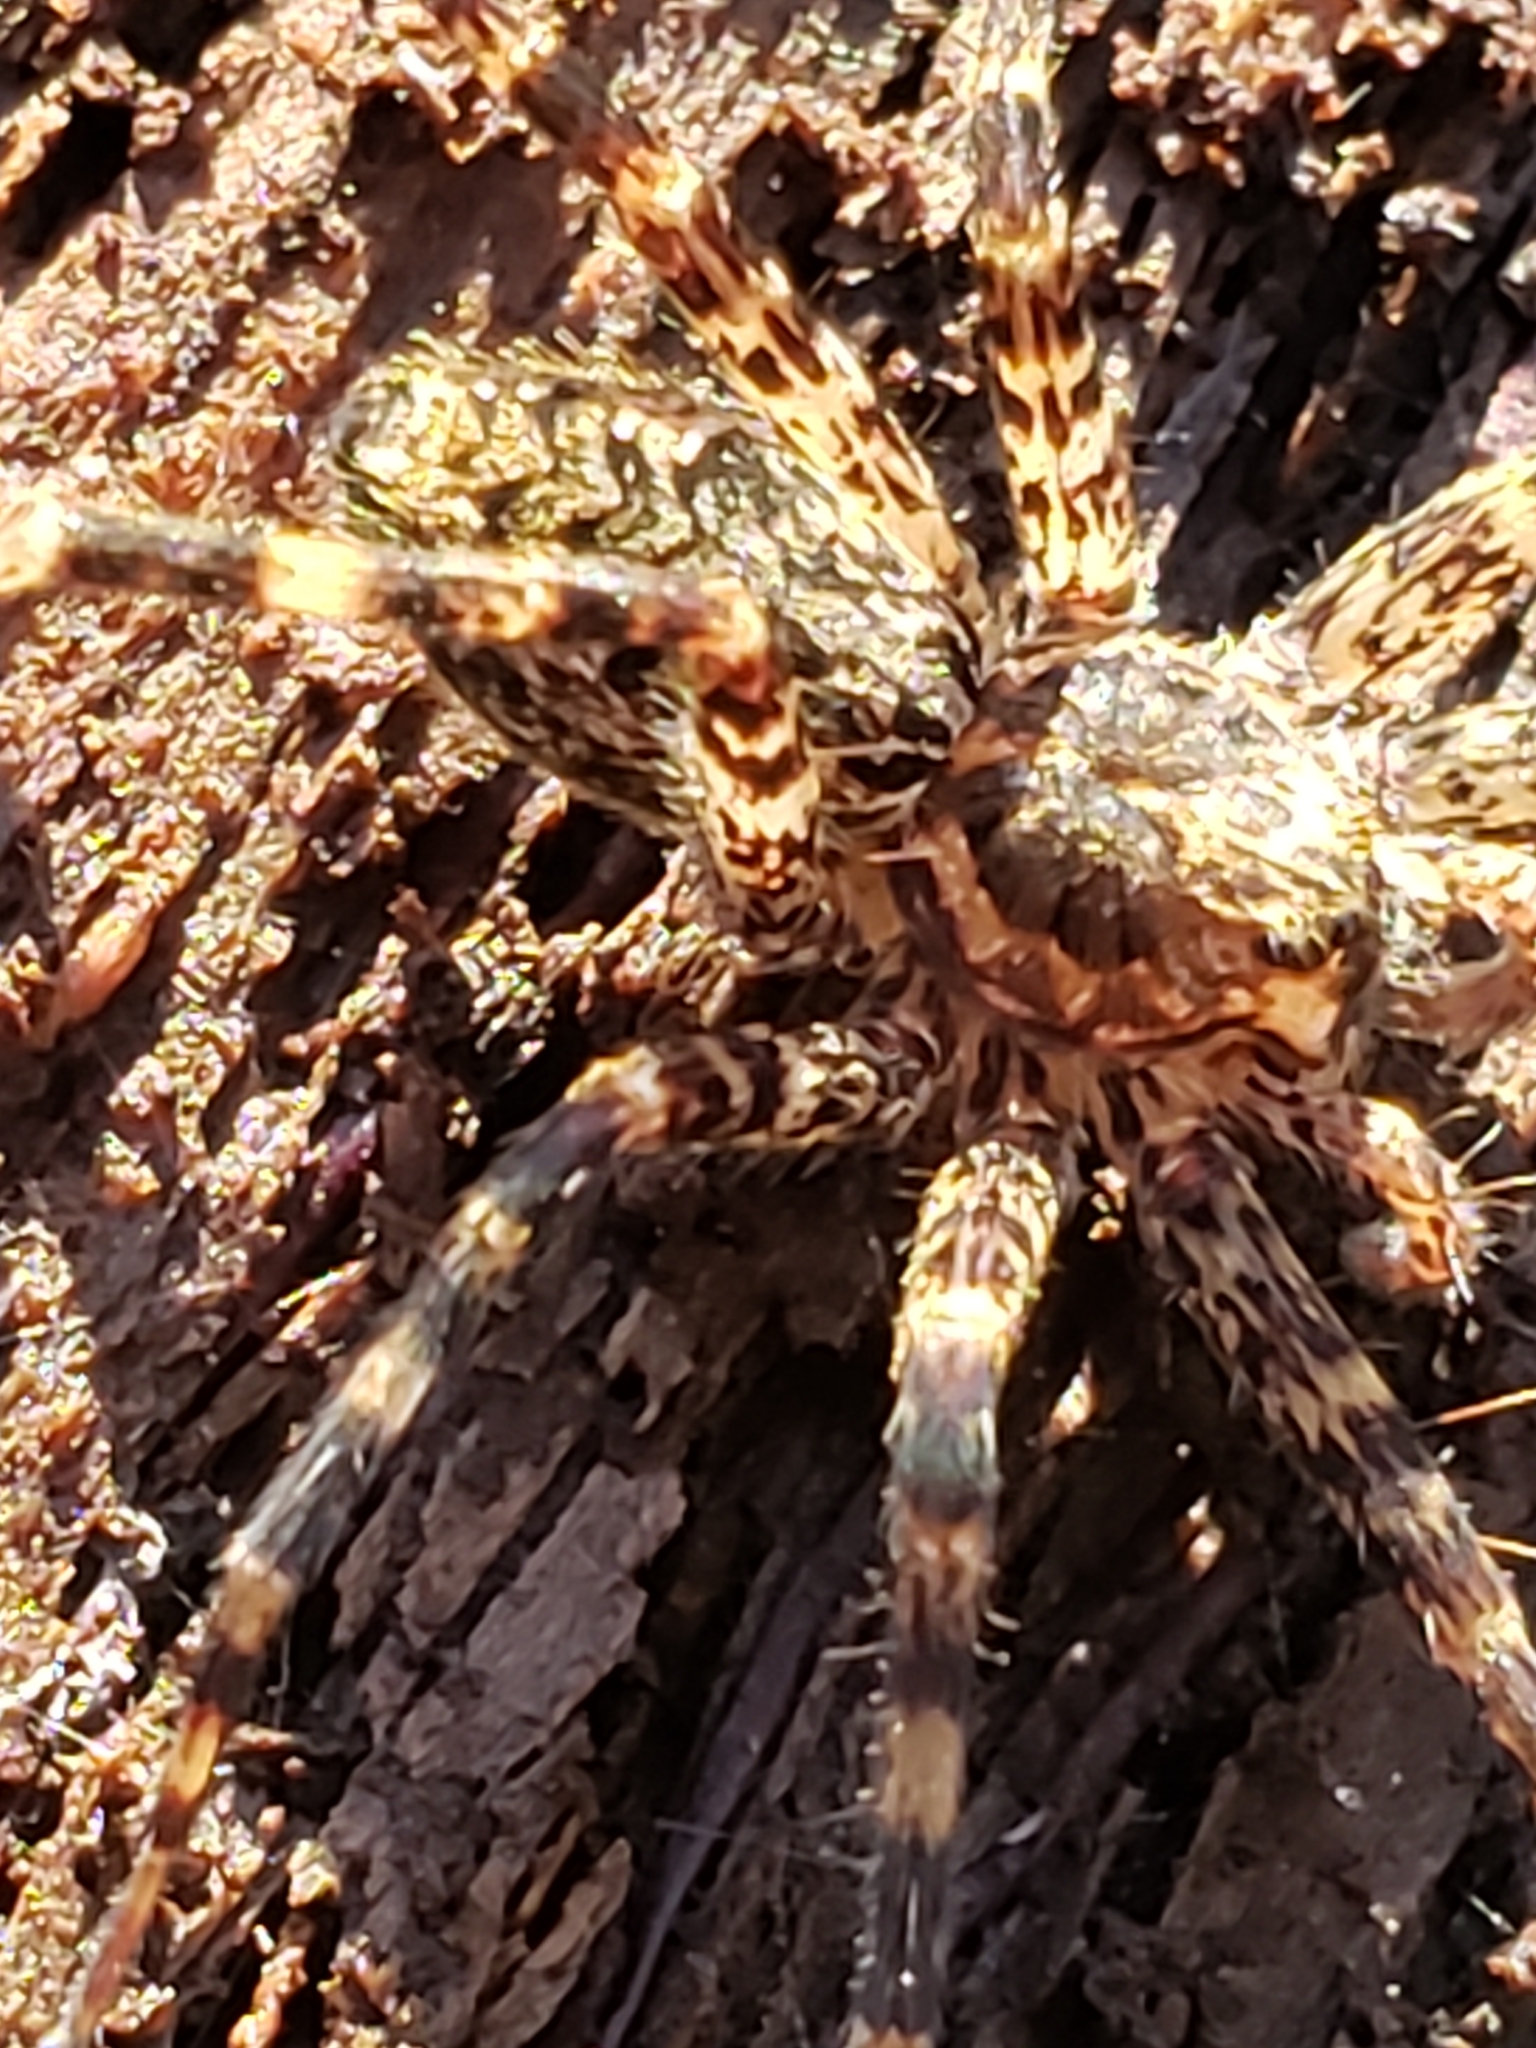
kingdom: Animalia
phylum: Arthropoda
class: Arachnida
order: Araneae
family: Pisauridae
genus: Dolomedes
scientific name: Dolomedes tenebrosus
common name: Dark fishing spider
